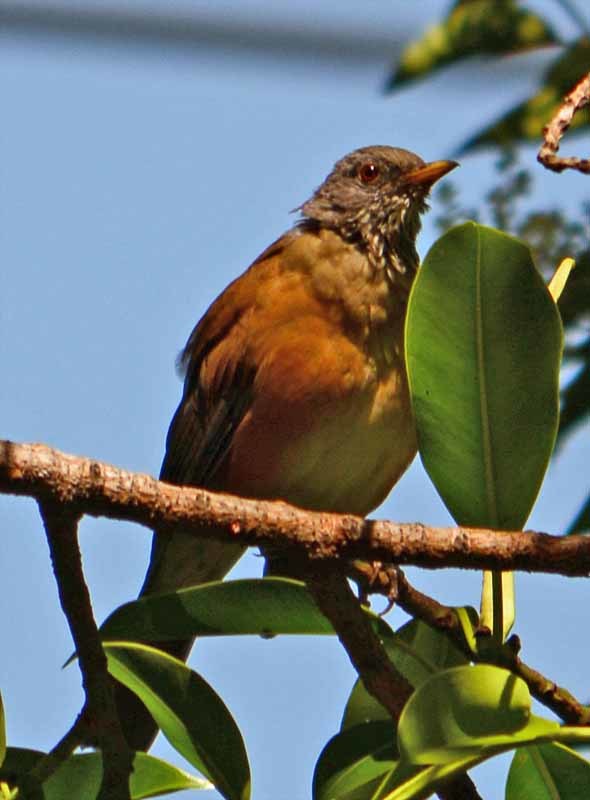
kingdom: Animalia
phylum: Chordata
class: Aves
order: Passeriformes
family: Turdidae
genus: Turdus
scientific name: Turdus rufopalliatus
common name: Rufous-backed robin
